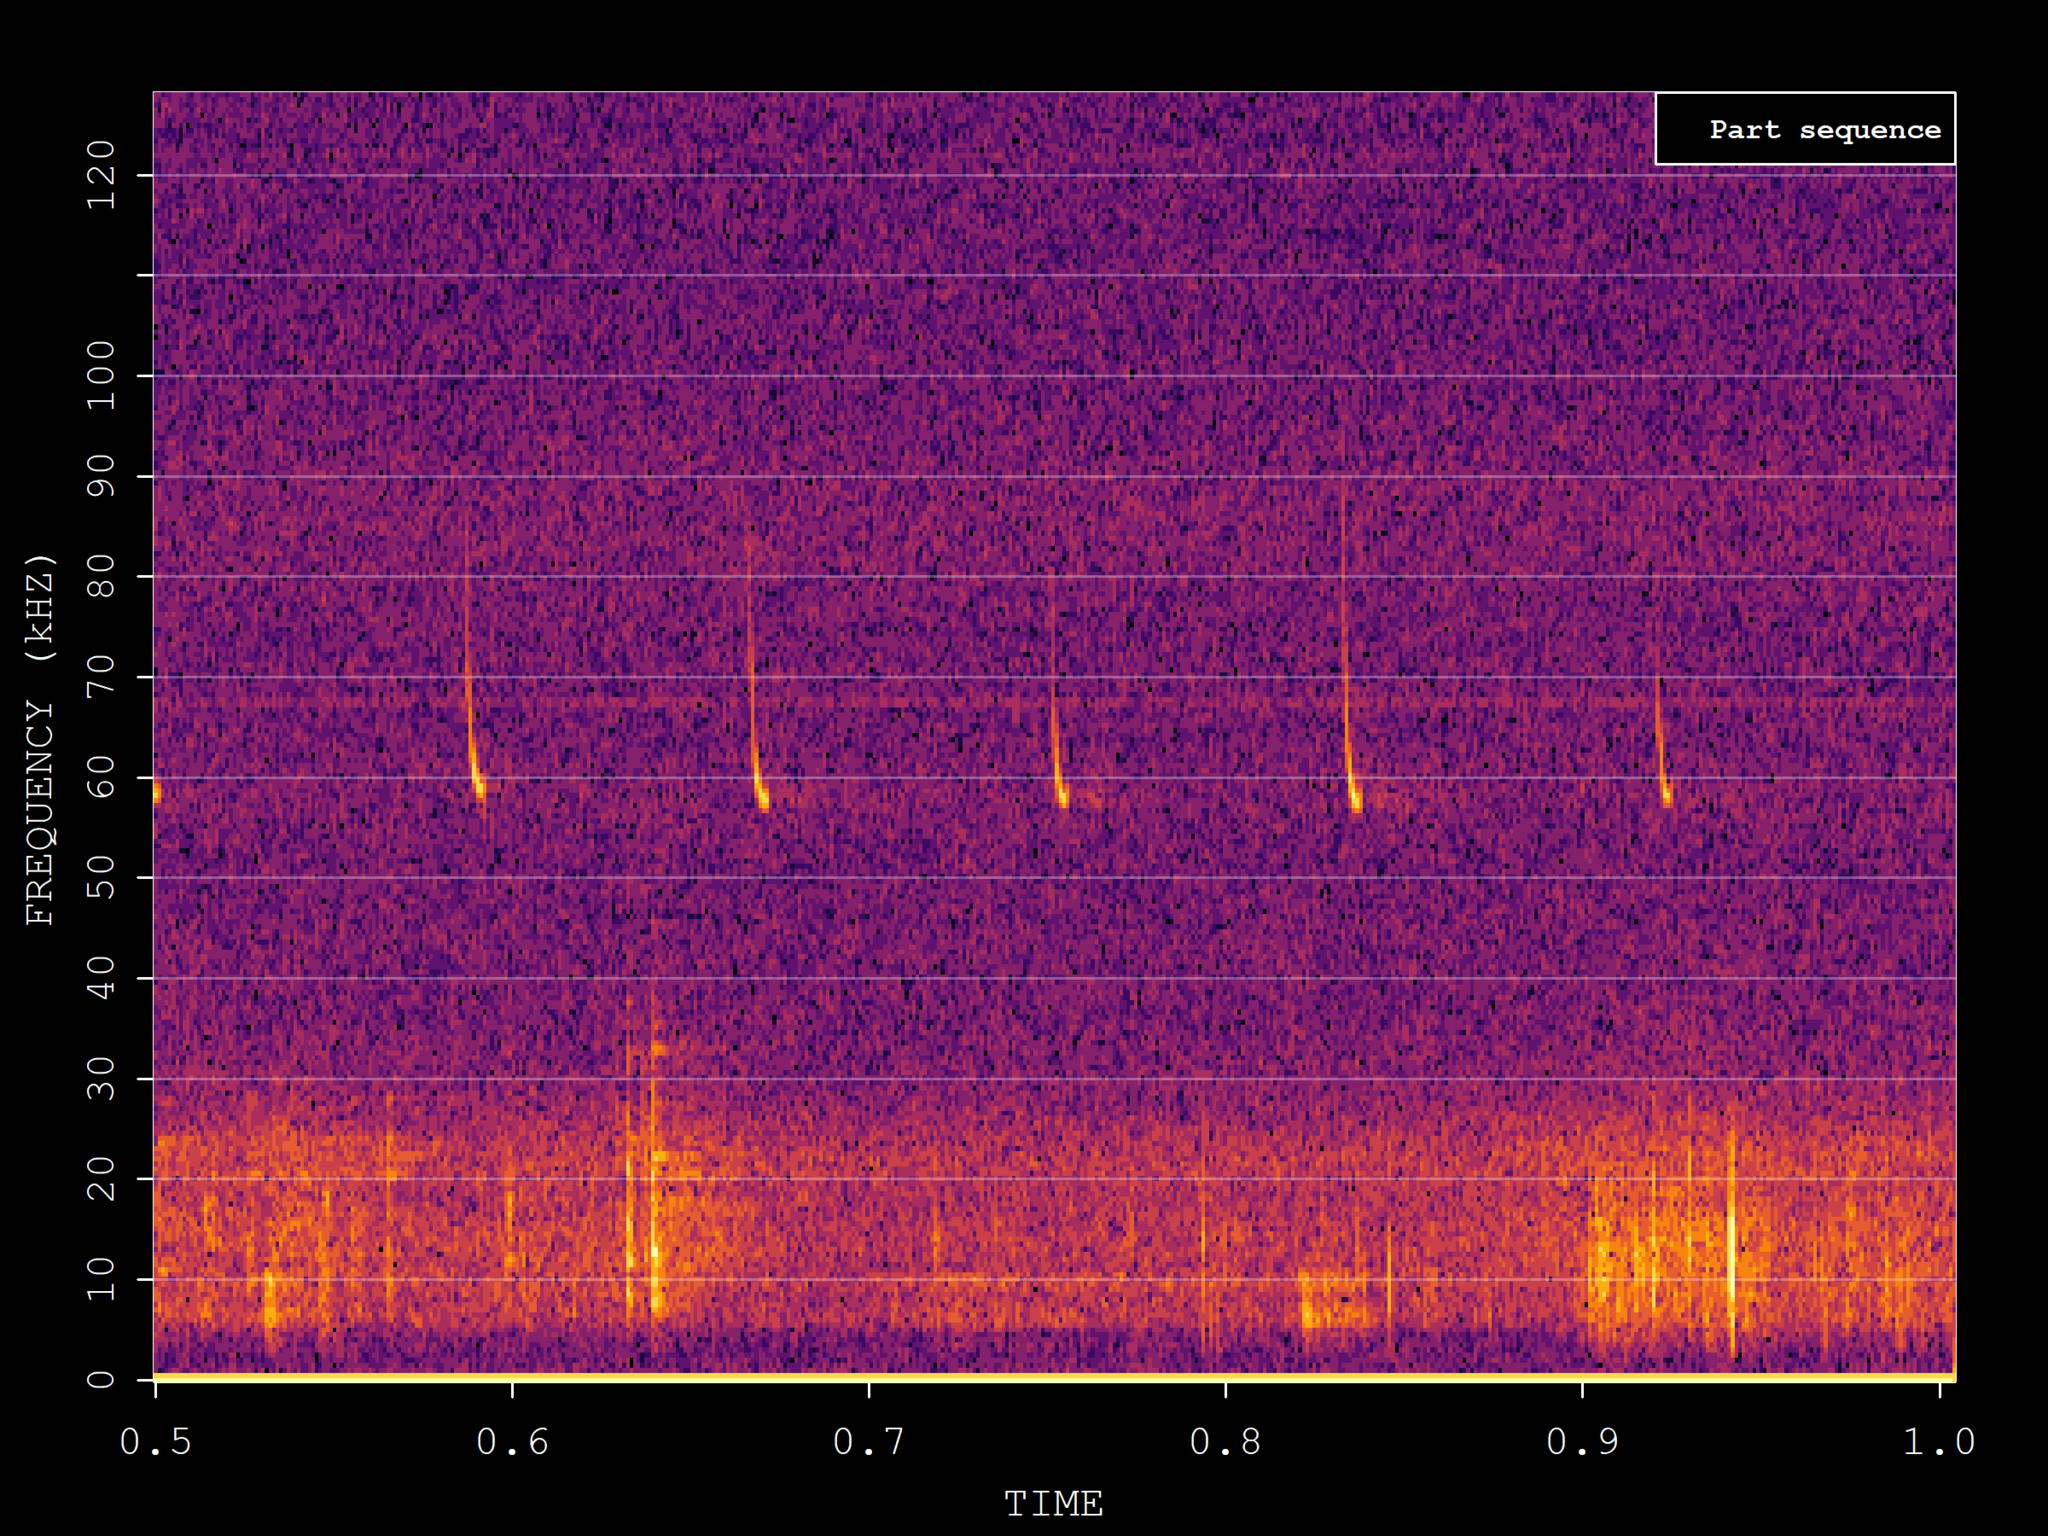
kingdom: Animalia
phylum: Chordata
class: Mammalia
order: Chiroptera
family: Vespertilionidae
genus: Pipistrellus
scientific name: Pipistrellus pygmaeus
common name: Soprano pipistrelle
